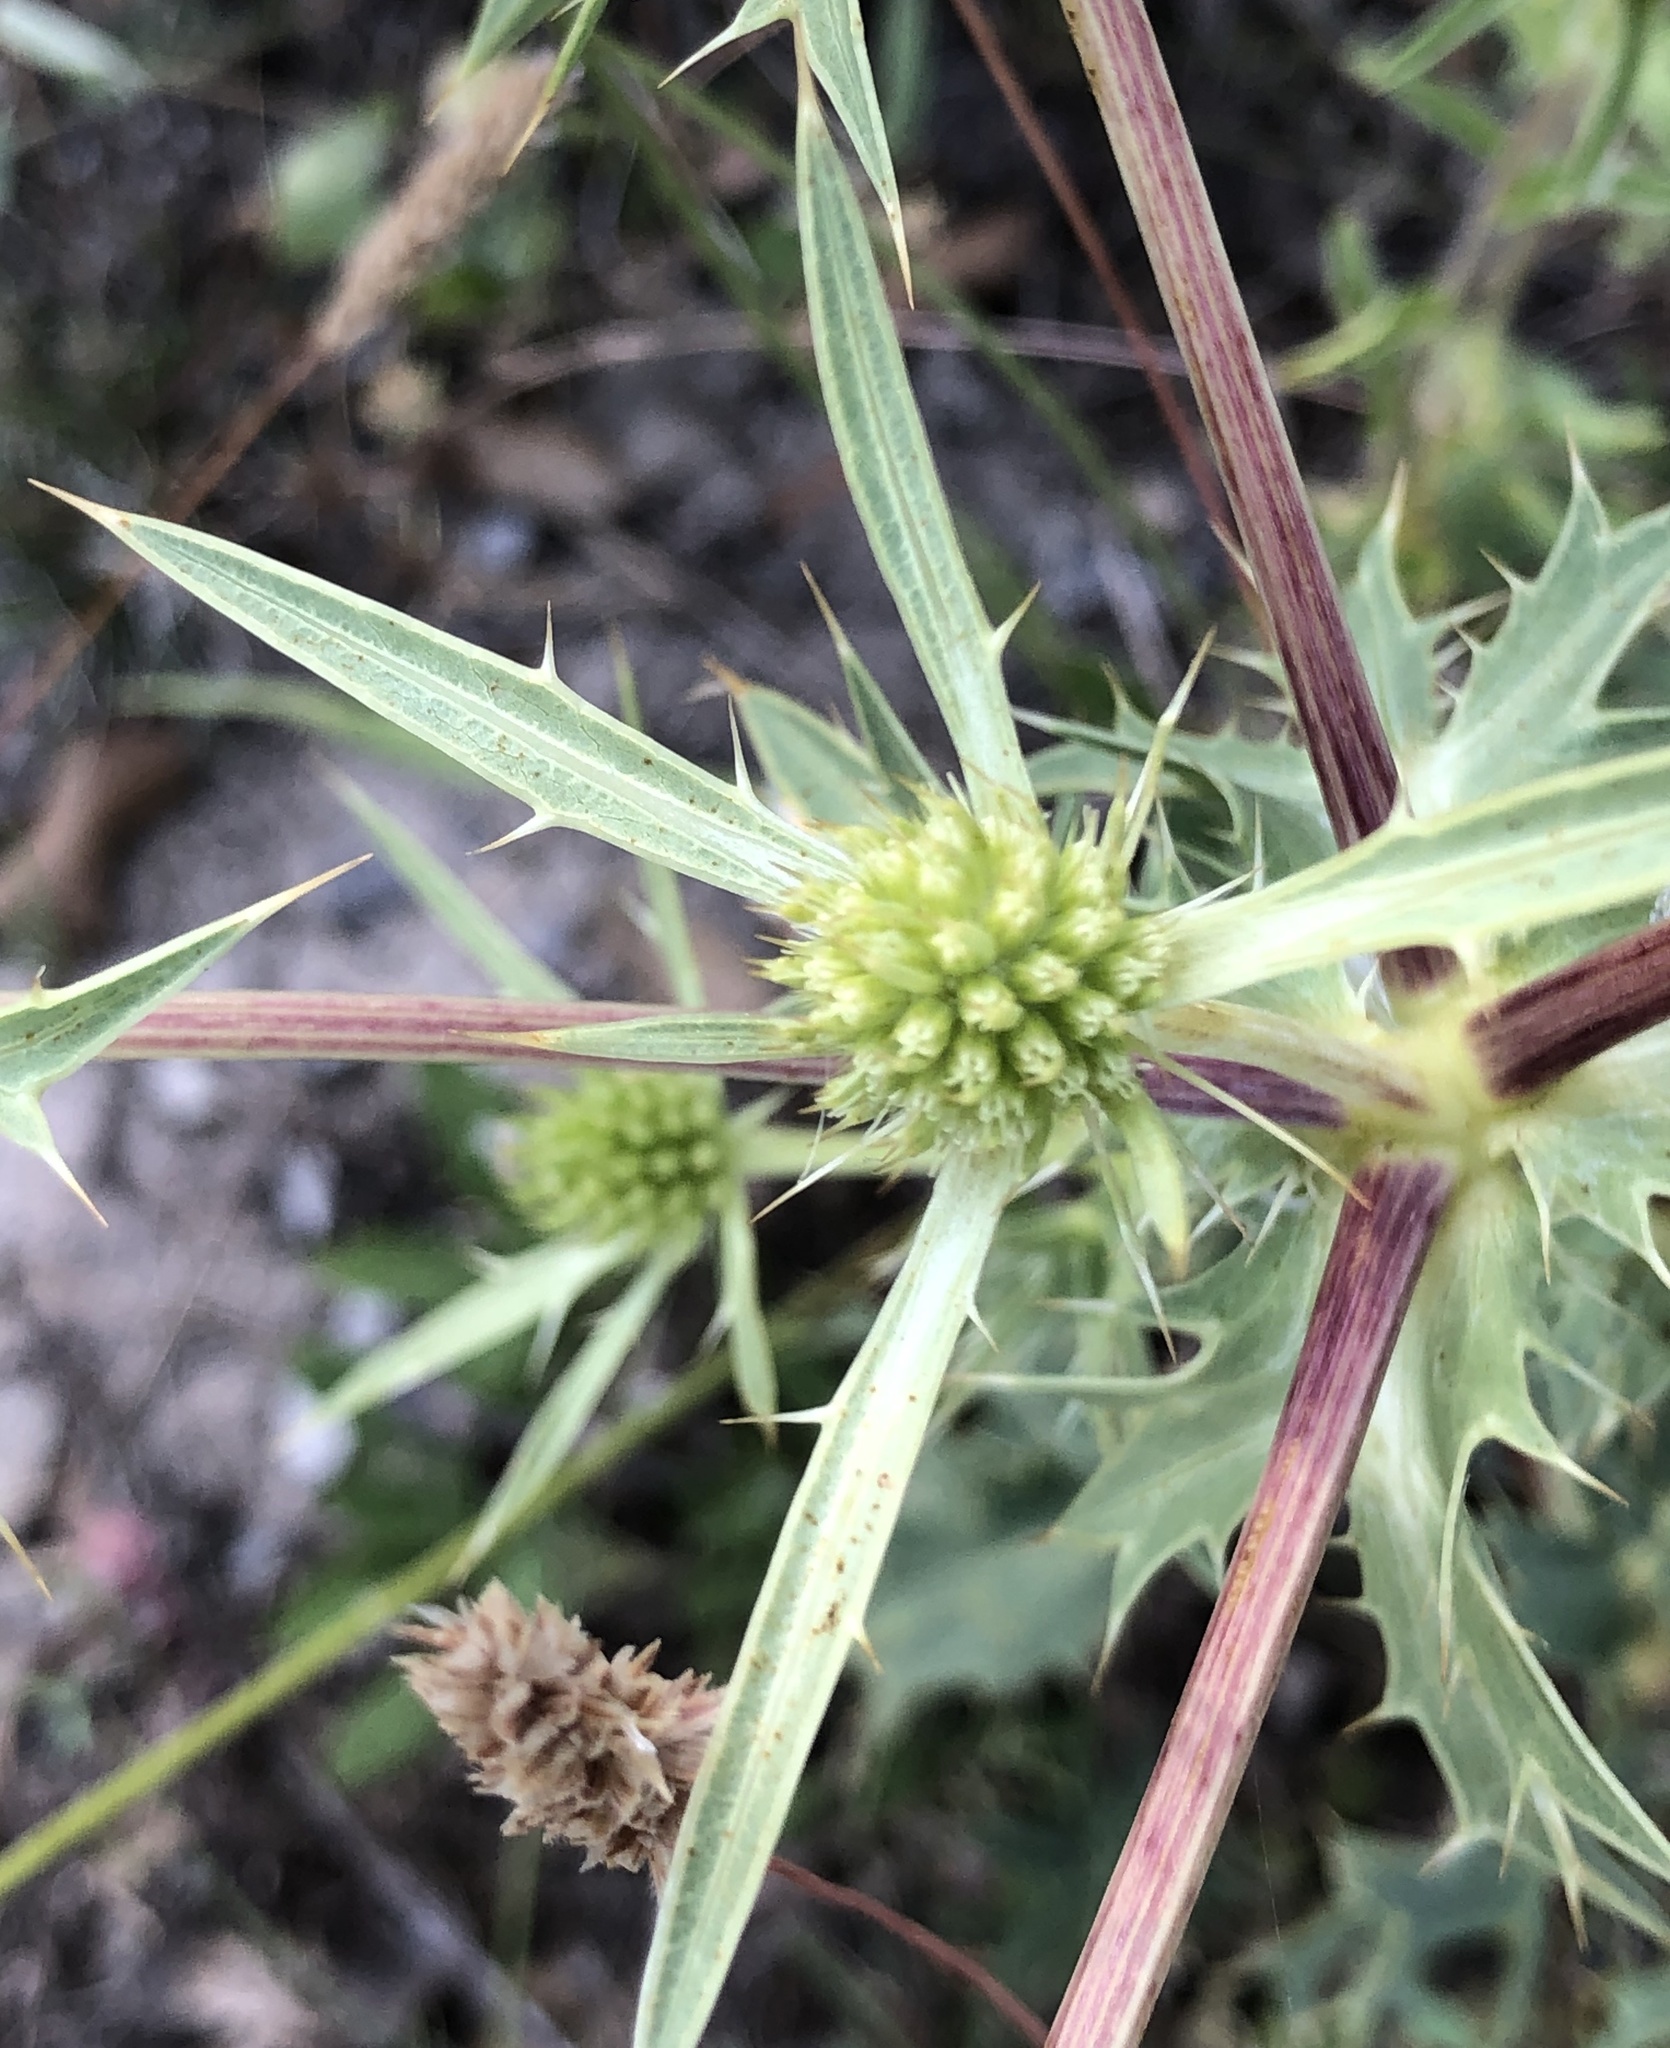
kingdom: Plantae
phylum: Tracheophyta
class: Magnoliopsida
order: Apiales
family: Apiaceae
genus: Eryngium
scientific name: Eryngium campestre
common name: Field eryngo
